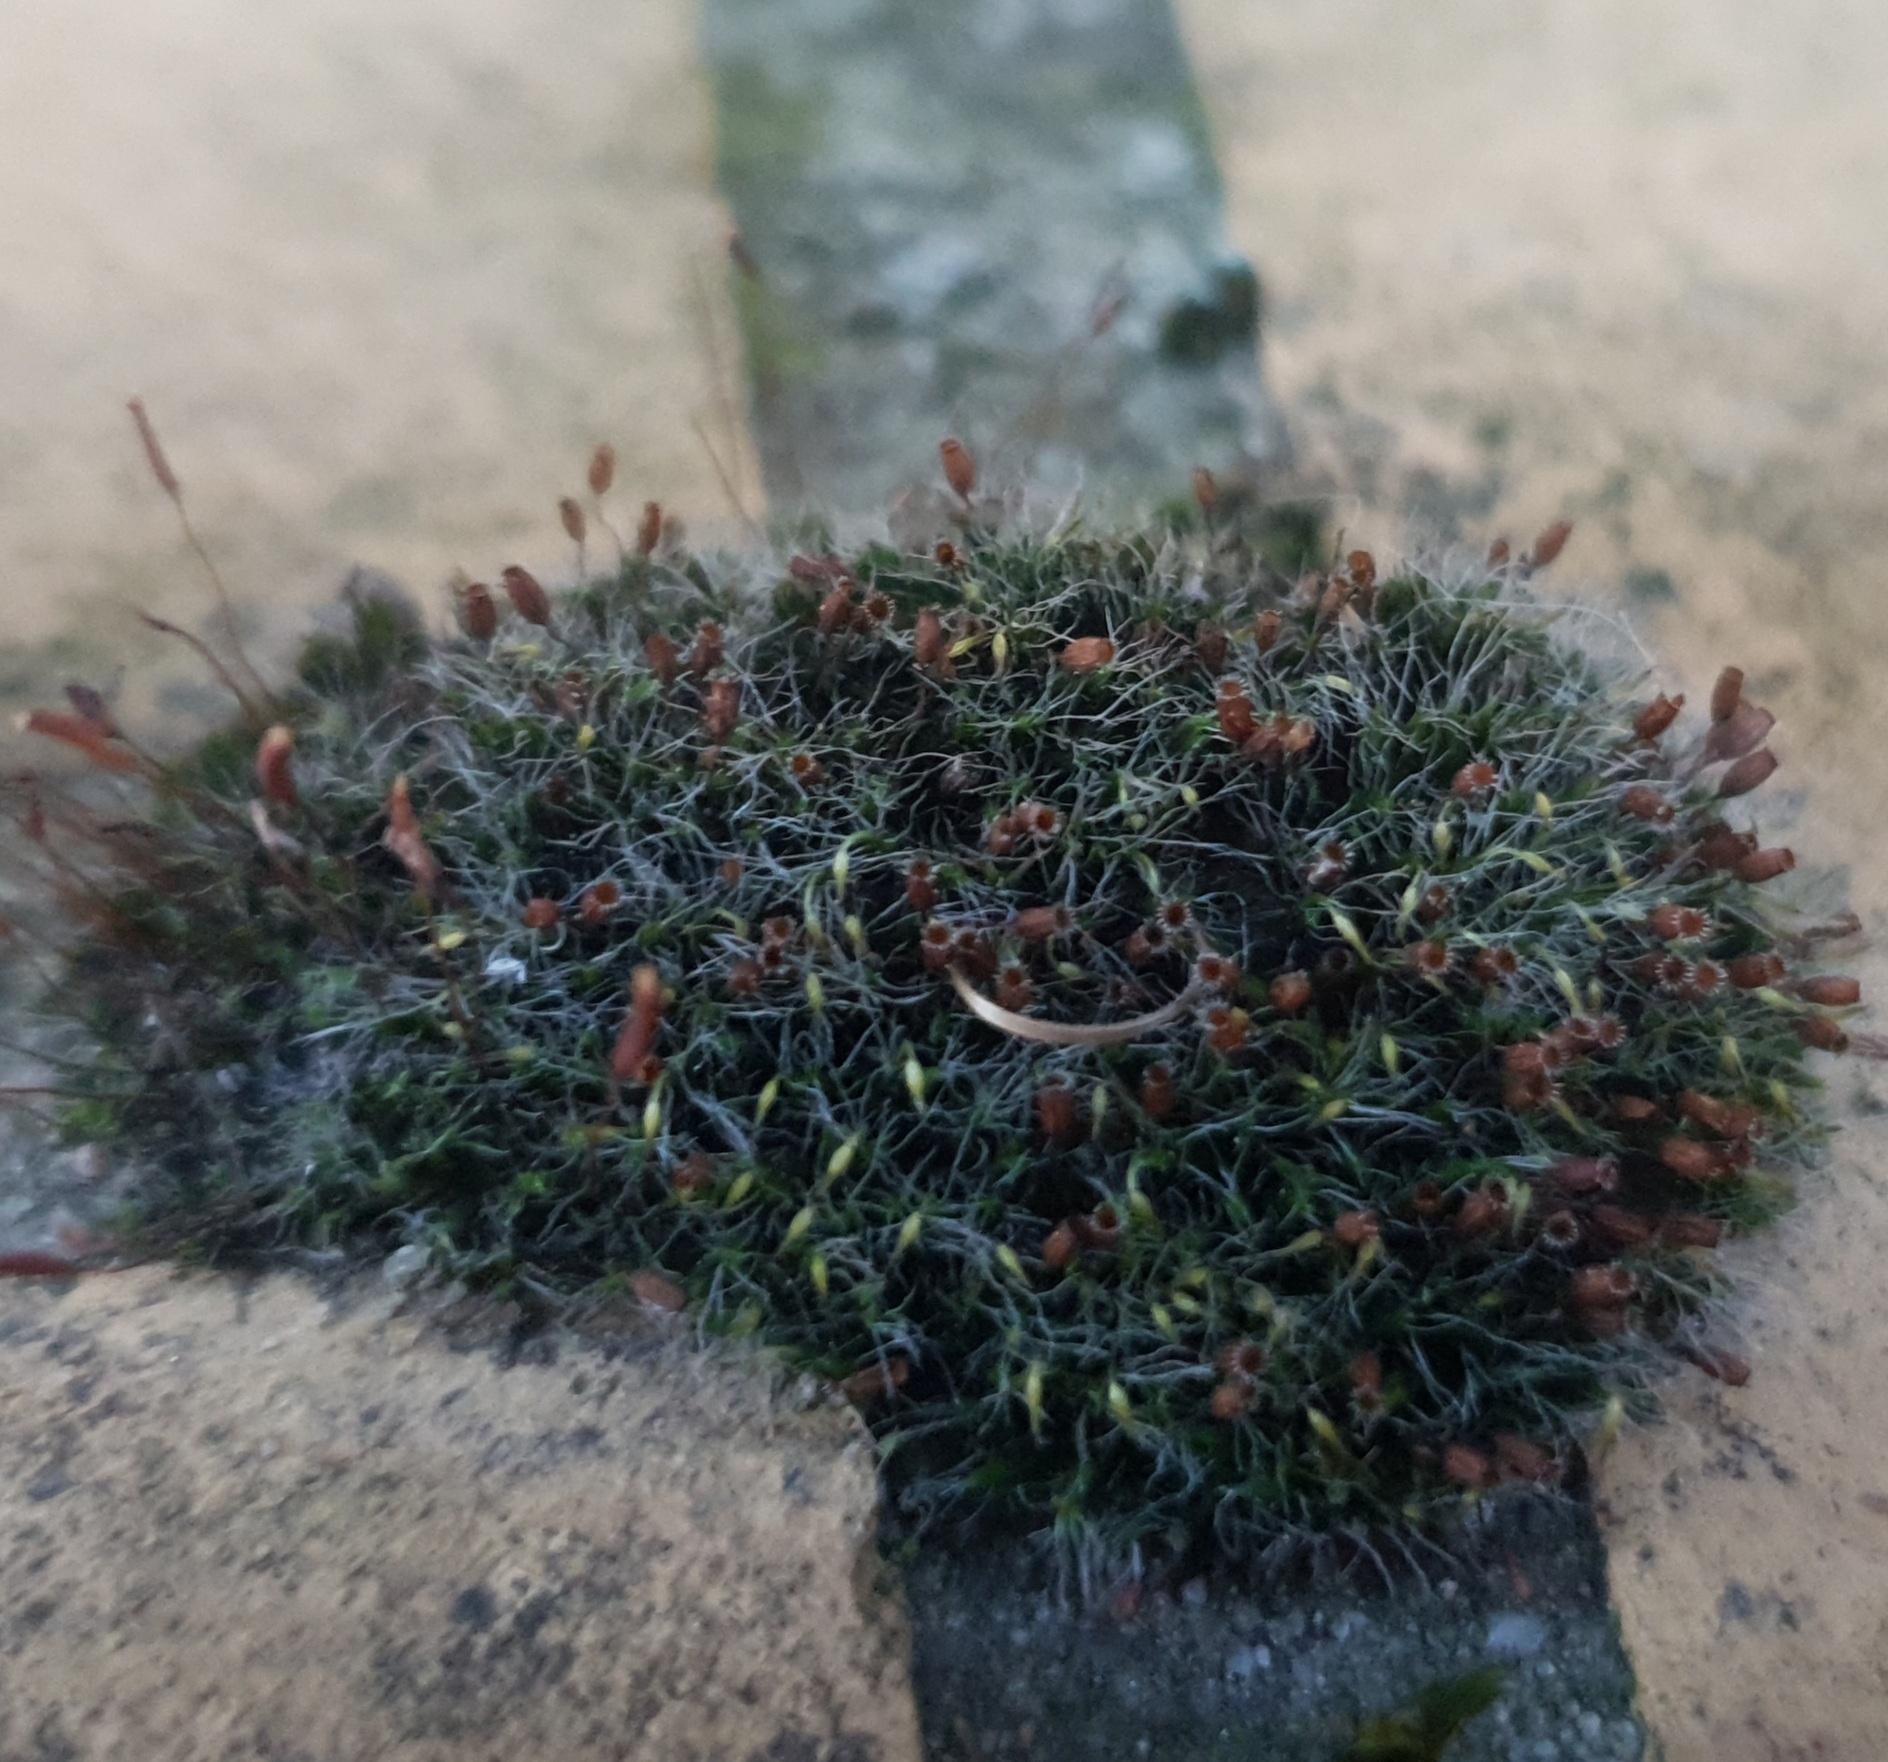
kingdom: Plantae
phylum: Bryophyta
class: Bryopsida
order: Grimmiales
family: Grimmiaceae
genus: Grimmia
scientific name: Grimmia pulvinata
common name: Grey-cushioned grimmia
